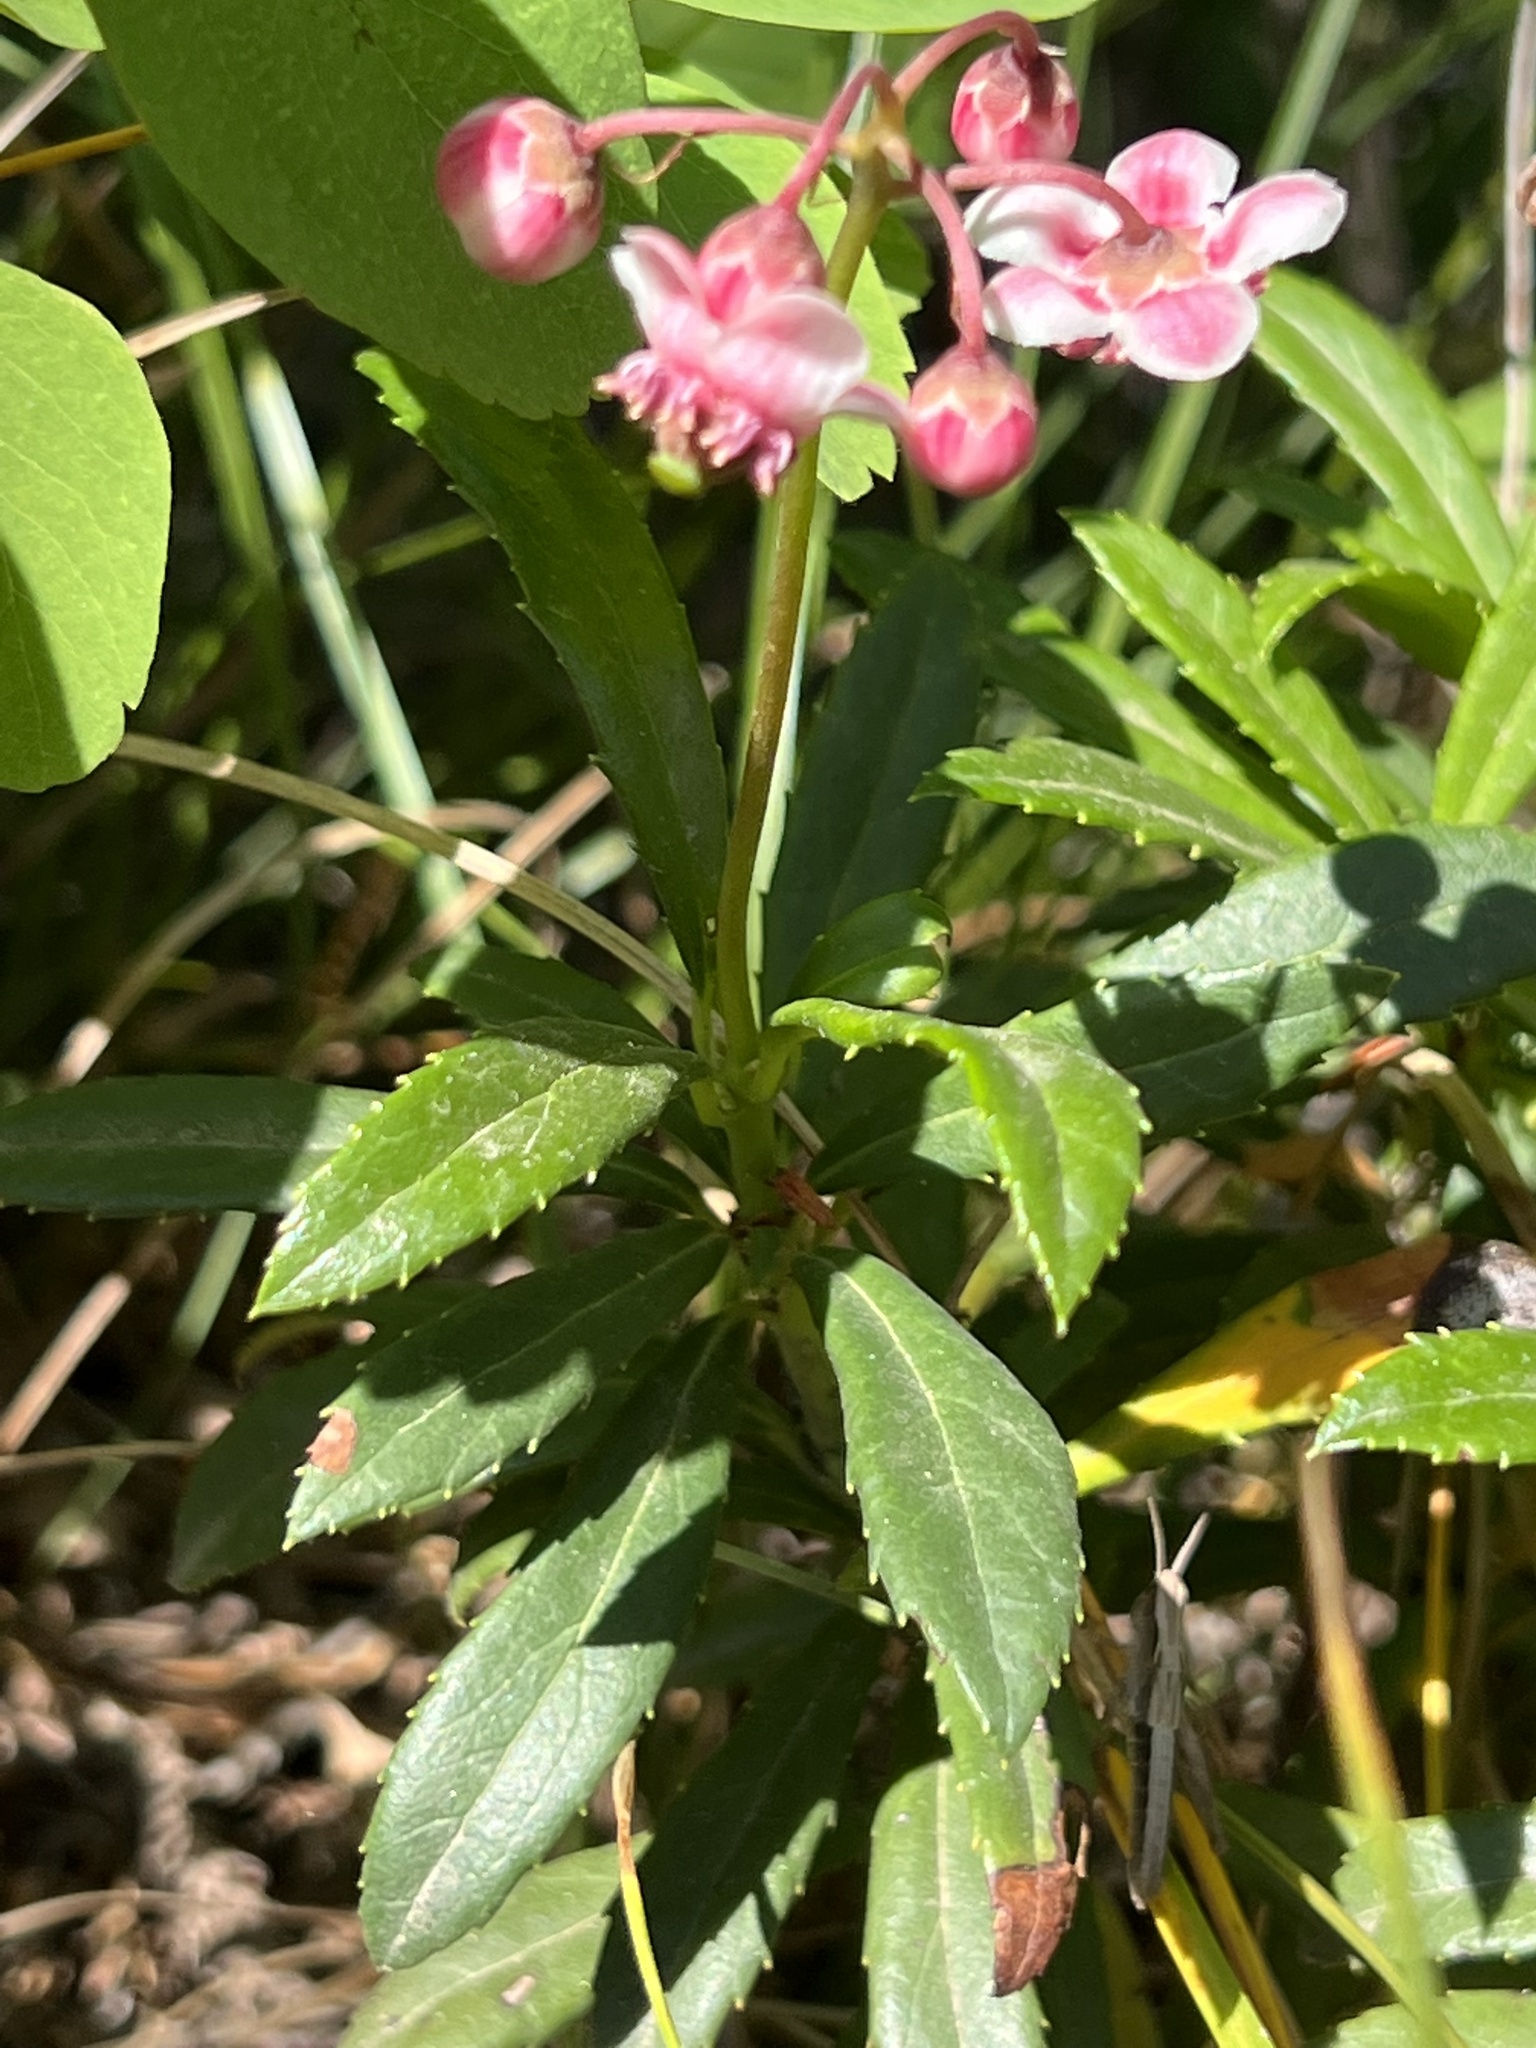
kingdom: Plantae
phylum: Tracheophyta
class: Magnoliopsida
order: Ericales
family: Ericaceae
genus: Chimaphila
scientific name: Chimaphila umbellata
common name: Pipsissewa
